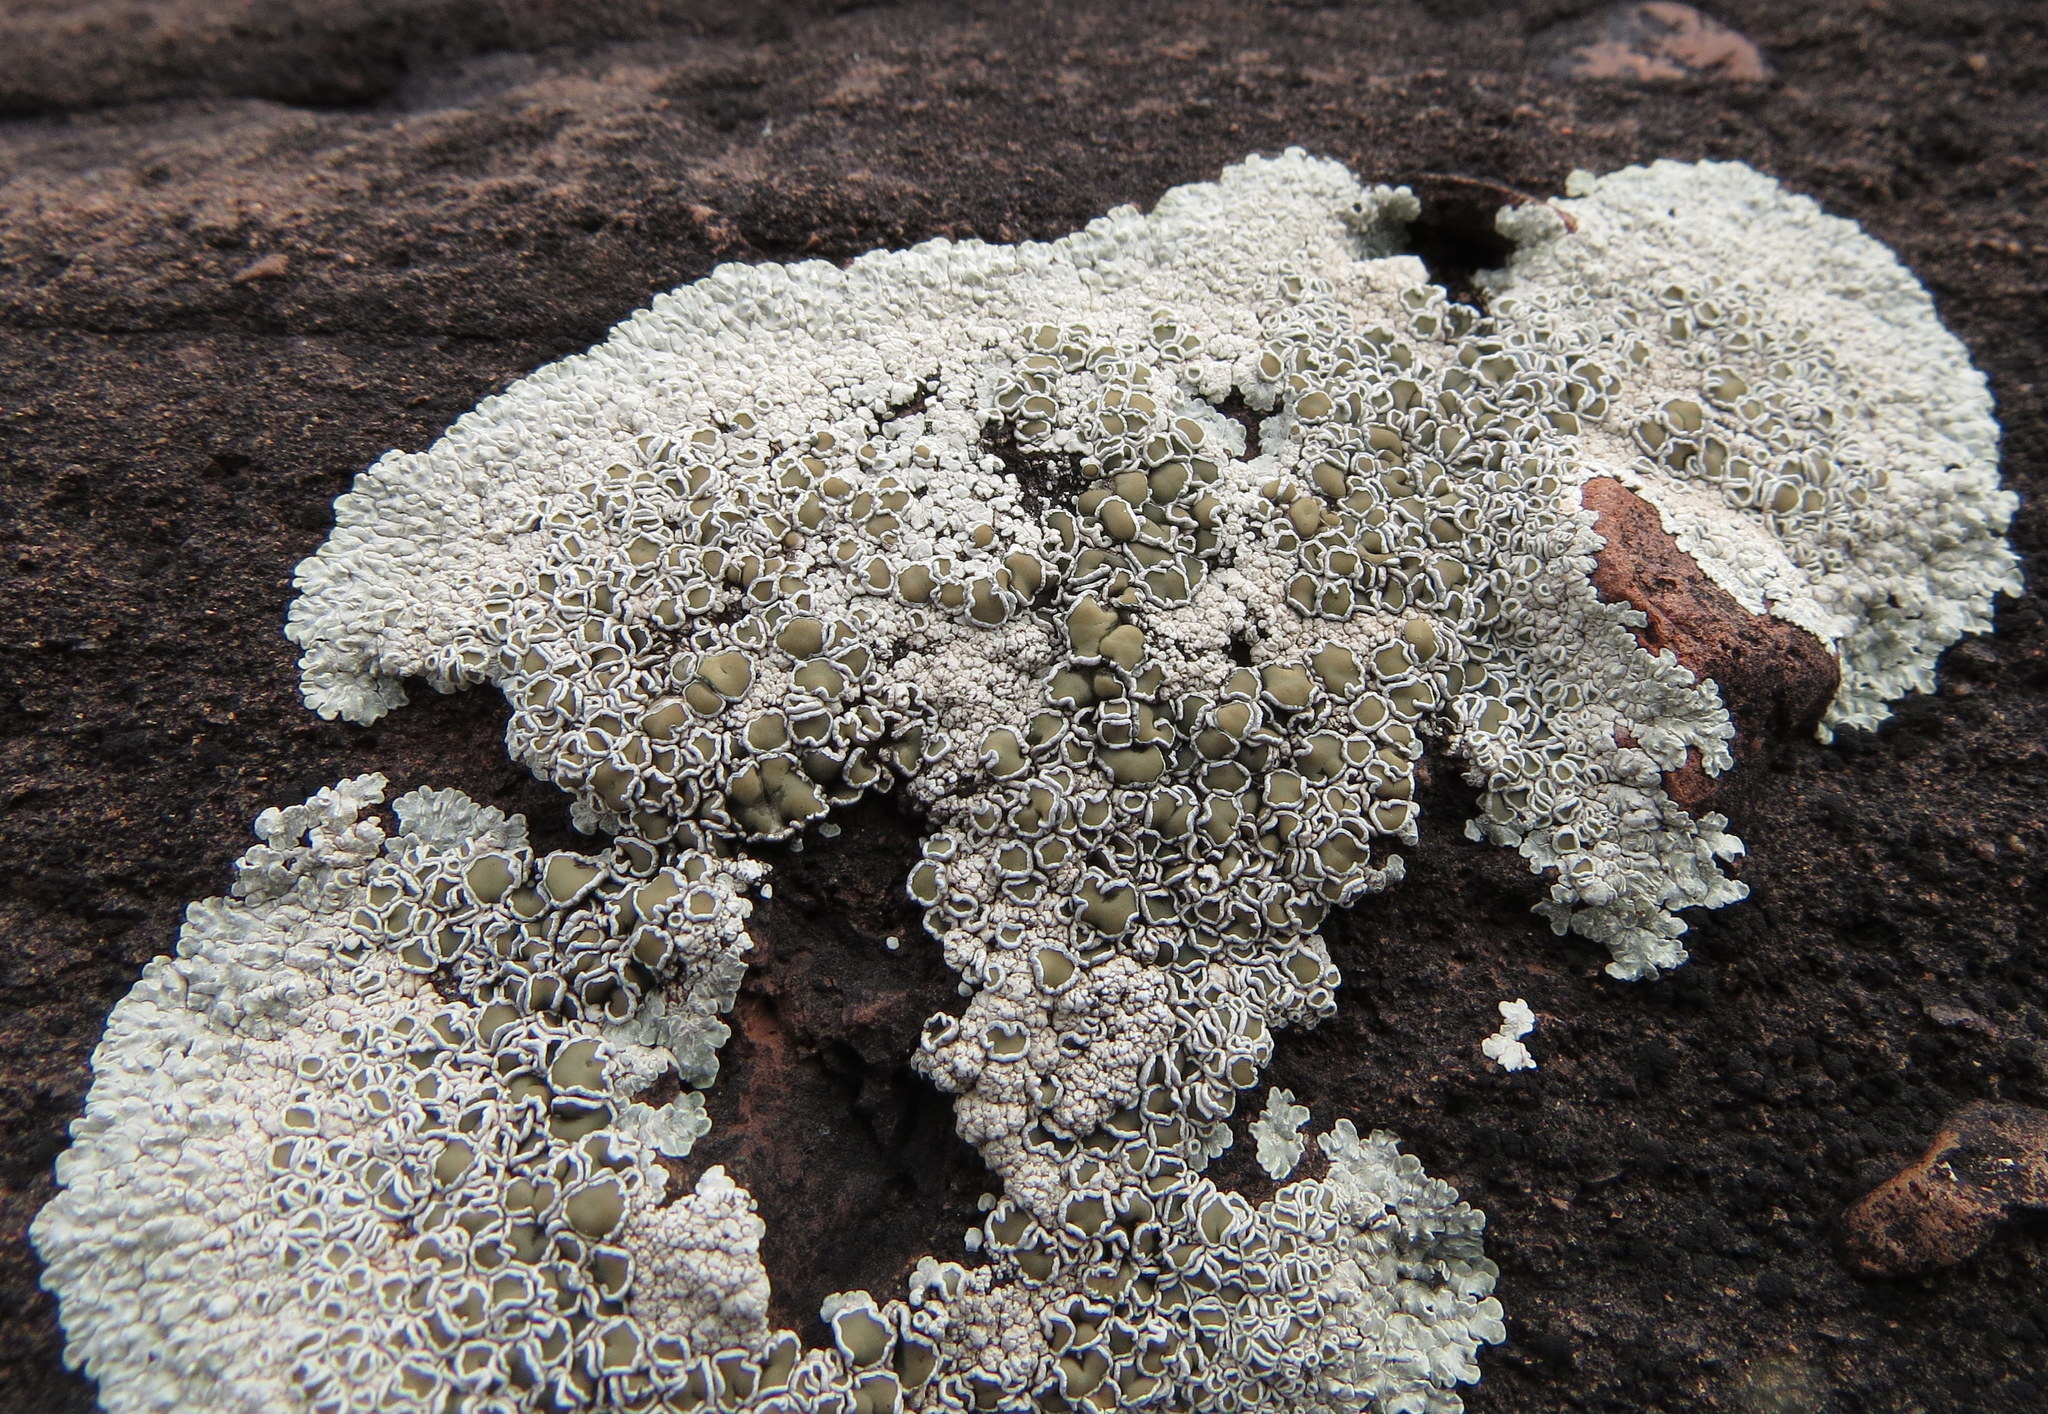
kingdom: Fungi
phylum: Ascomycota
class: Lecanoromycetes
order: Lecanorales
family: Lecanoraceae
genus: Protoparmeliopsis
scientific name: Protoparmeliopsis muralis
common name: Stonewall rim lichen
